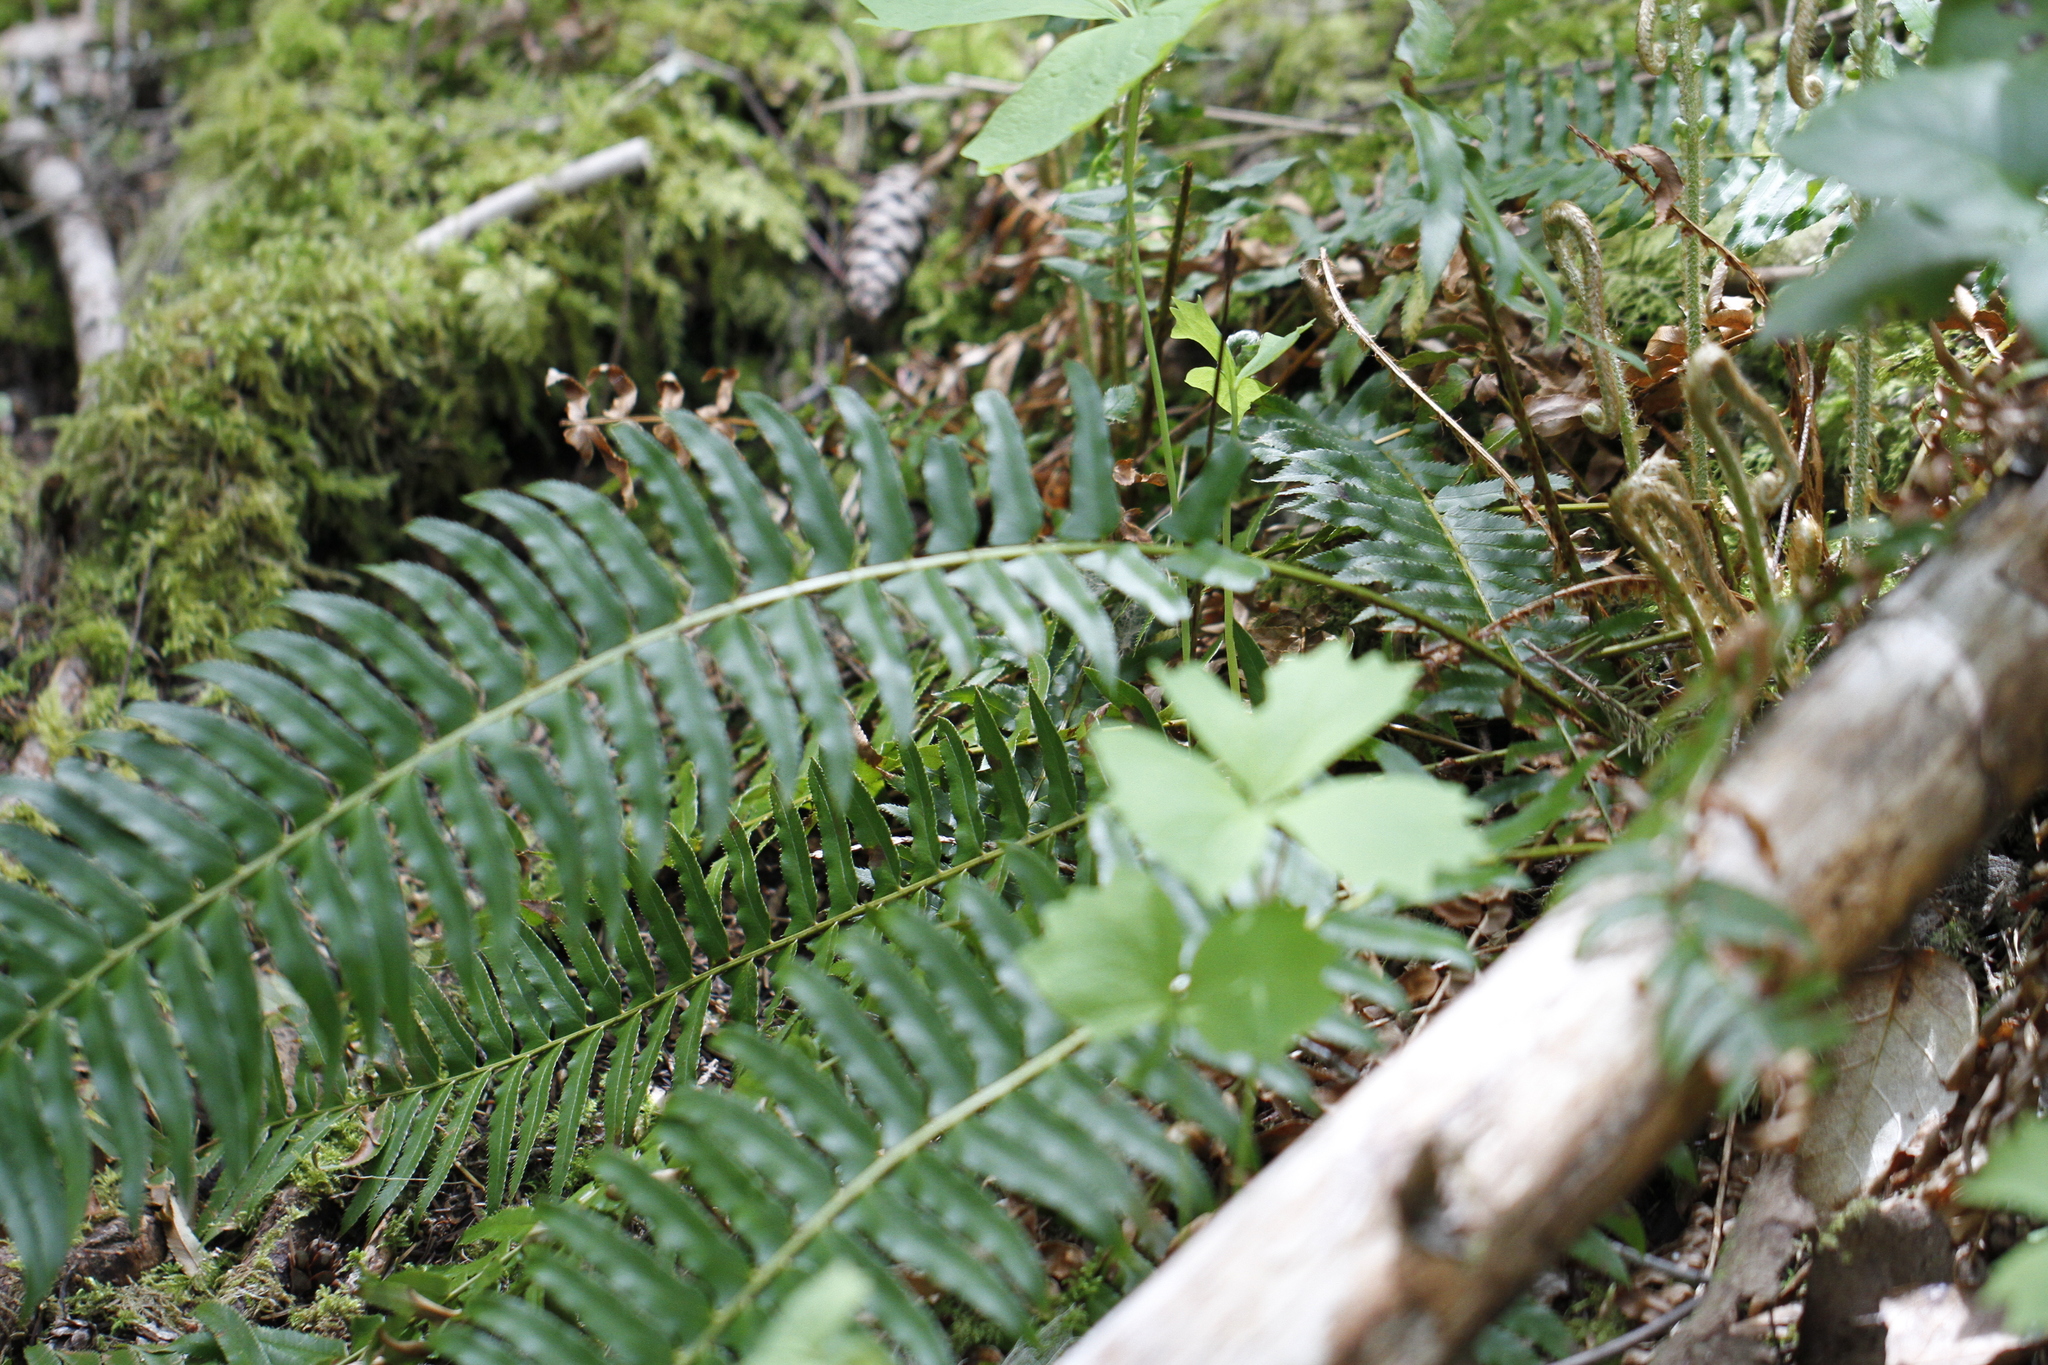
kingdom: Plantae
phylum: Tracheophyta
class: Polypodiopsida
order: Polypodiales
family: Dryopteridaceae
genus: Polystichum
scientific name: Polystichum munitum
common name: Western sword-fern
